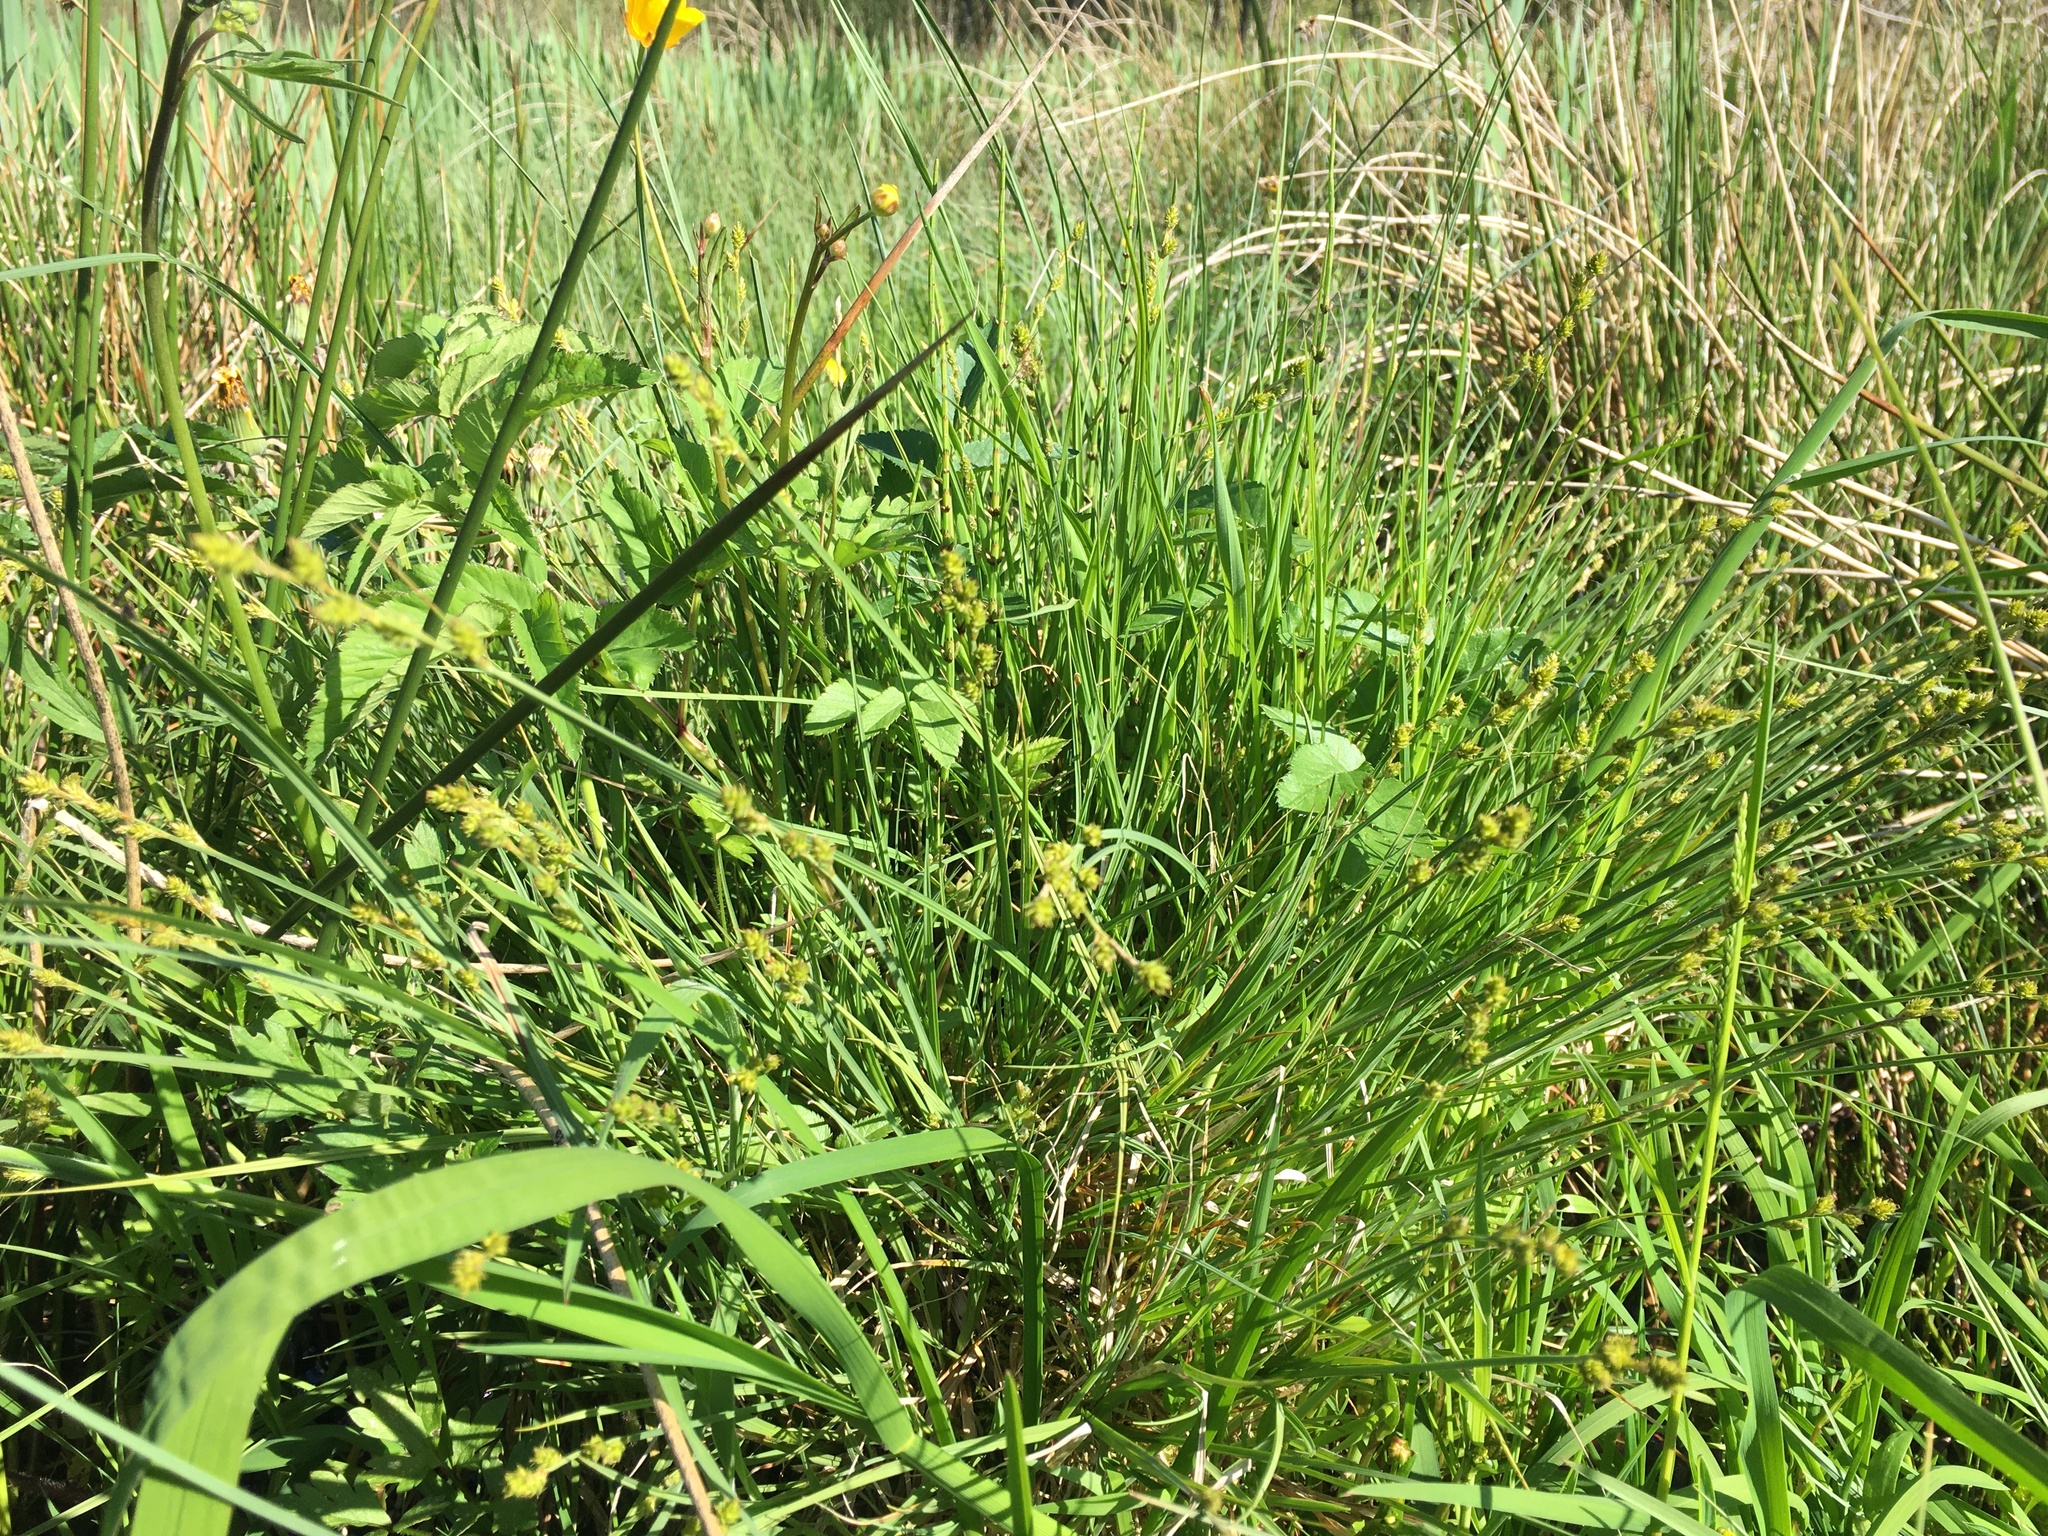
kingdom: Plantae
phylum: Tracheophyta
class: Liliopsida
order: Poales
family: Cyperaceae
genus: Carex
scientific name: Carex canescens
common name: White sedge
